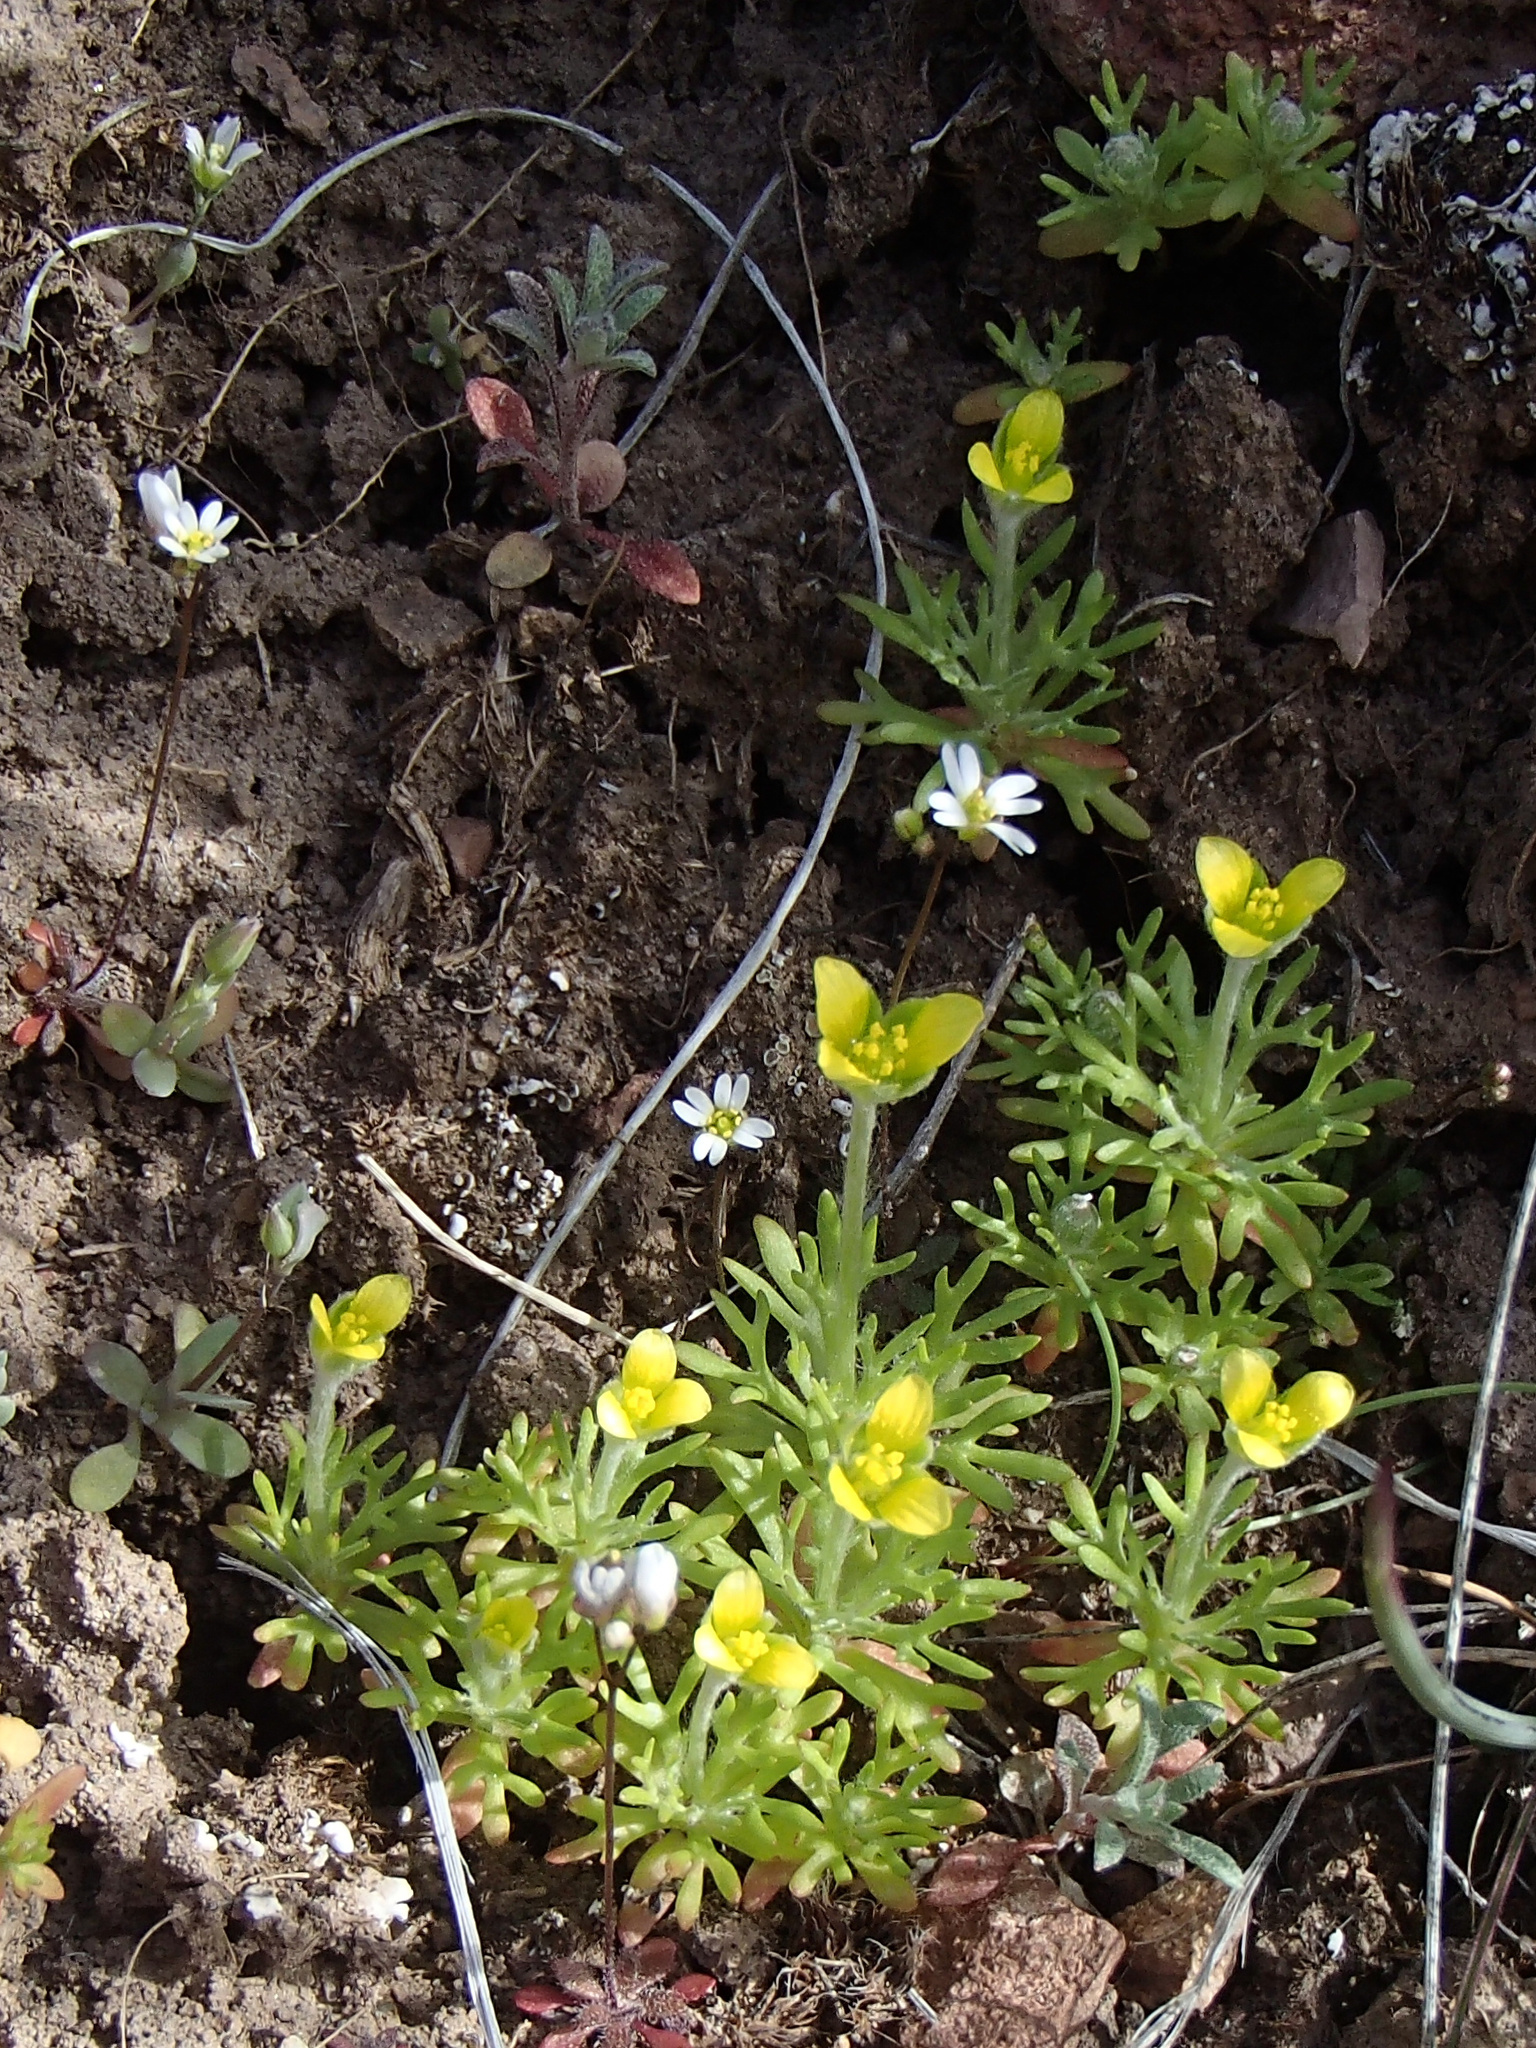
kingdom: Plantae
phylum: Tracheophyta
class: Magnoliopsida
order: Ranunculales
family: Ranunculaceae
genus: Ceratocephala
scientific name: Ceratocephala orthoceras
